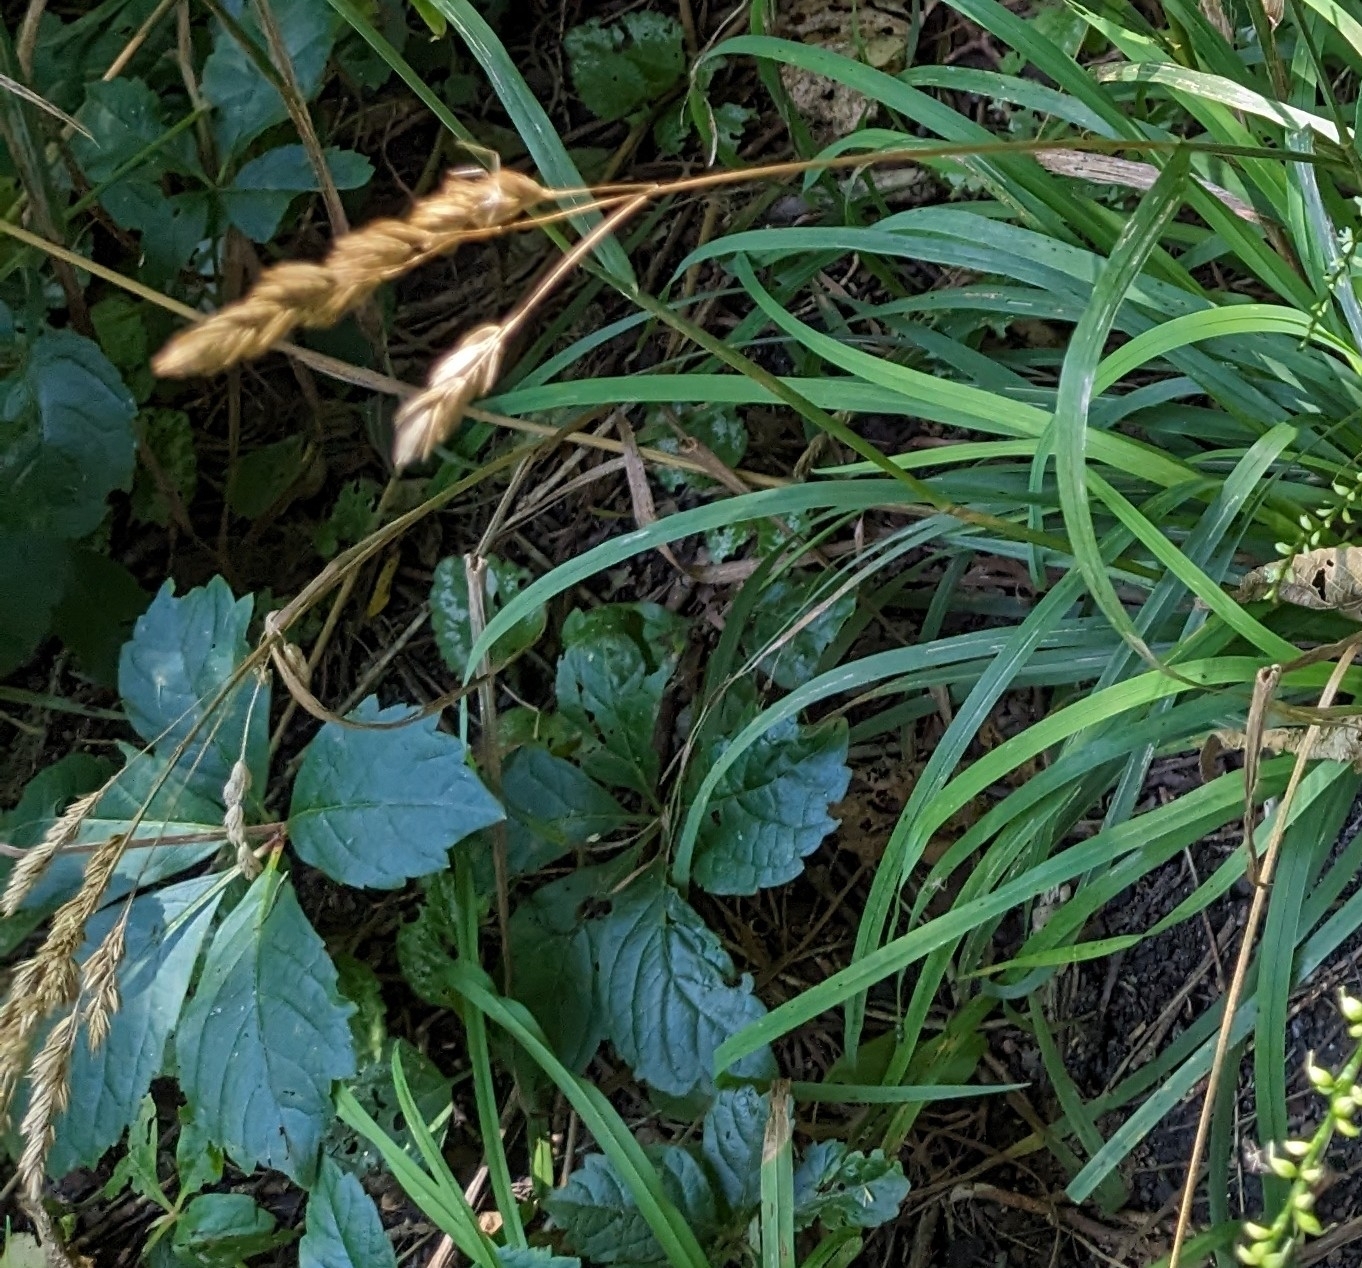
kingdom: Plantae
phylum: Tracheophyta
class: Liliopsida
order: Poales
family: Poaceae
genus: Dactylis
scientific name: Dactylis glomerata
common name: Orchardgrass
